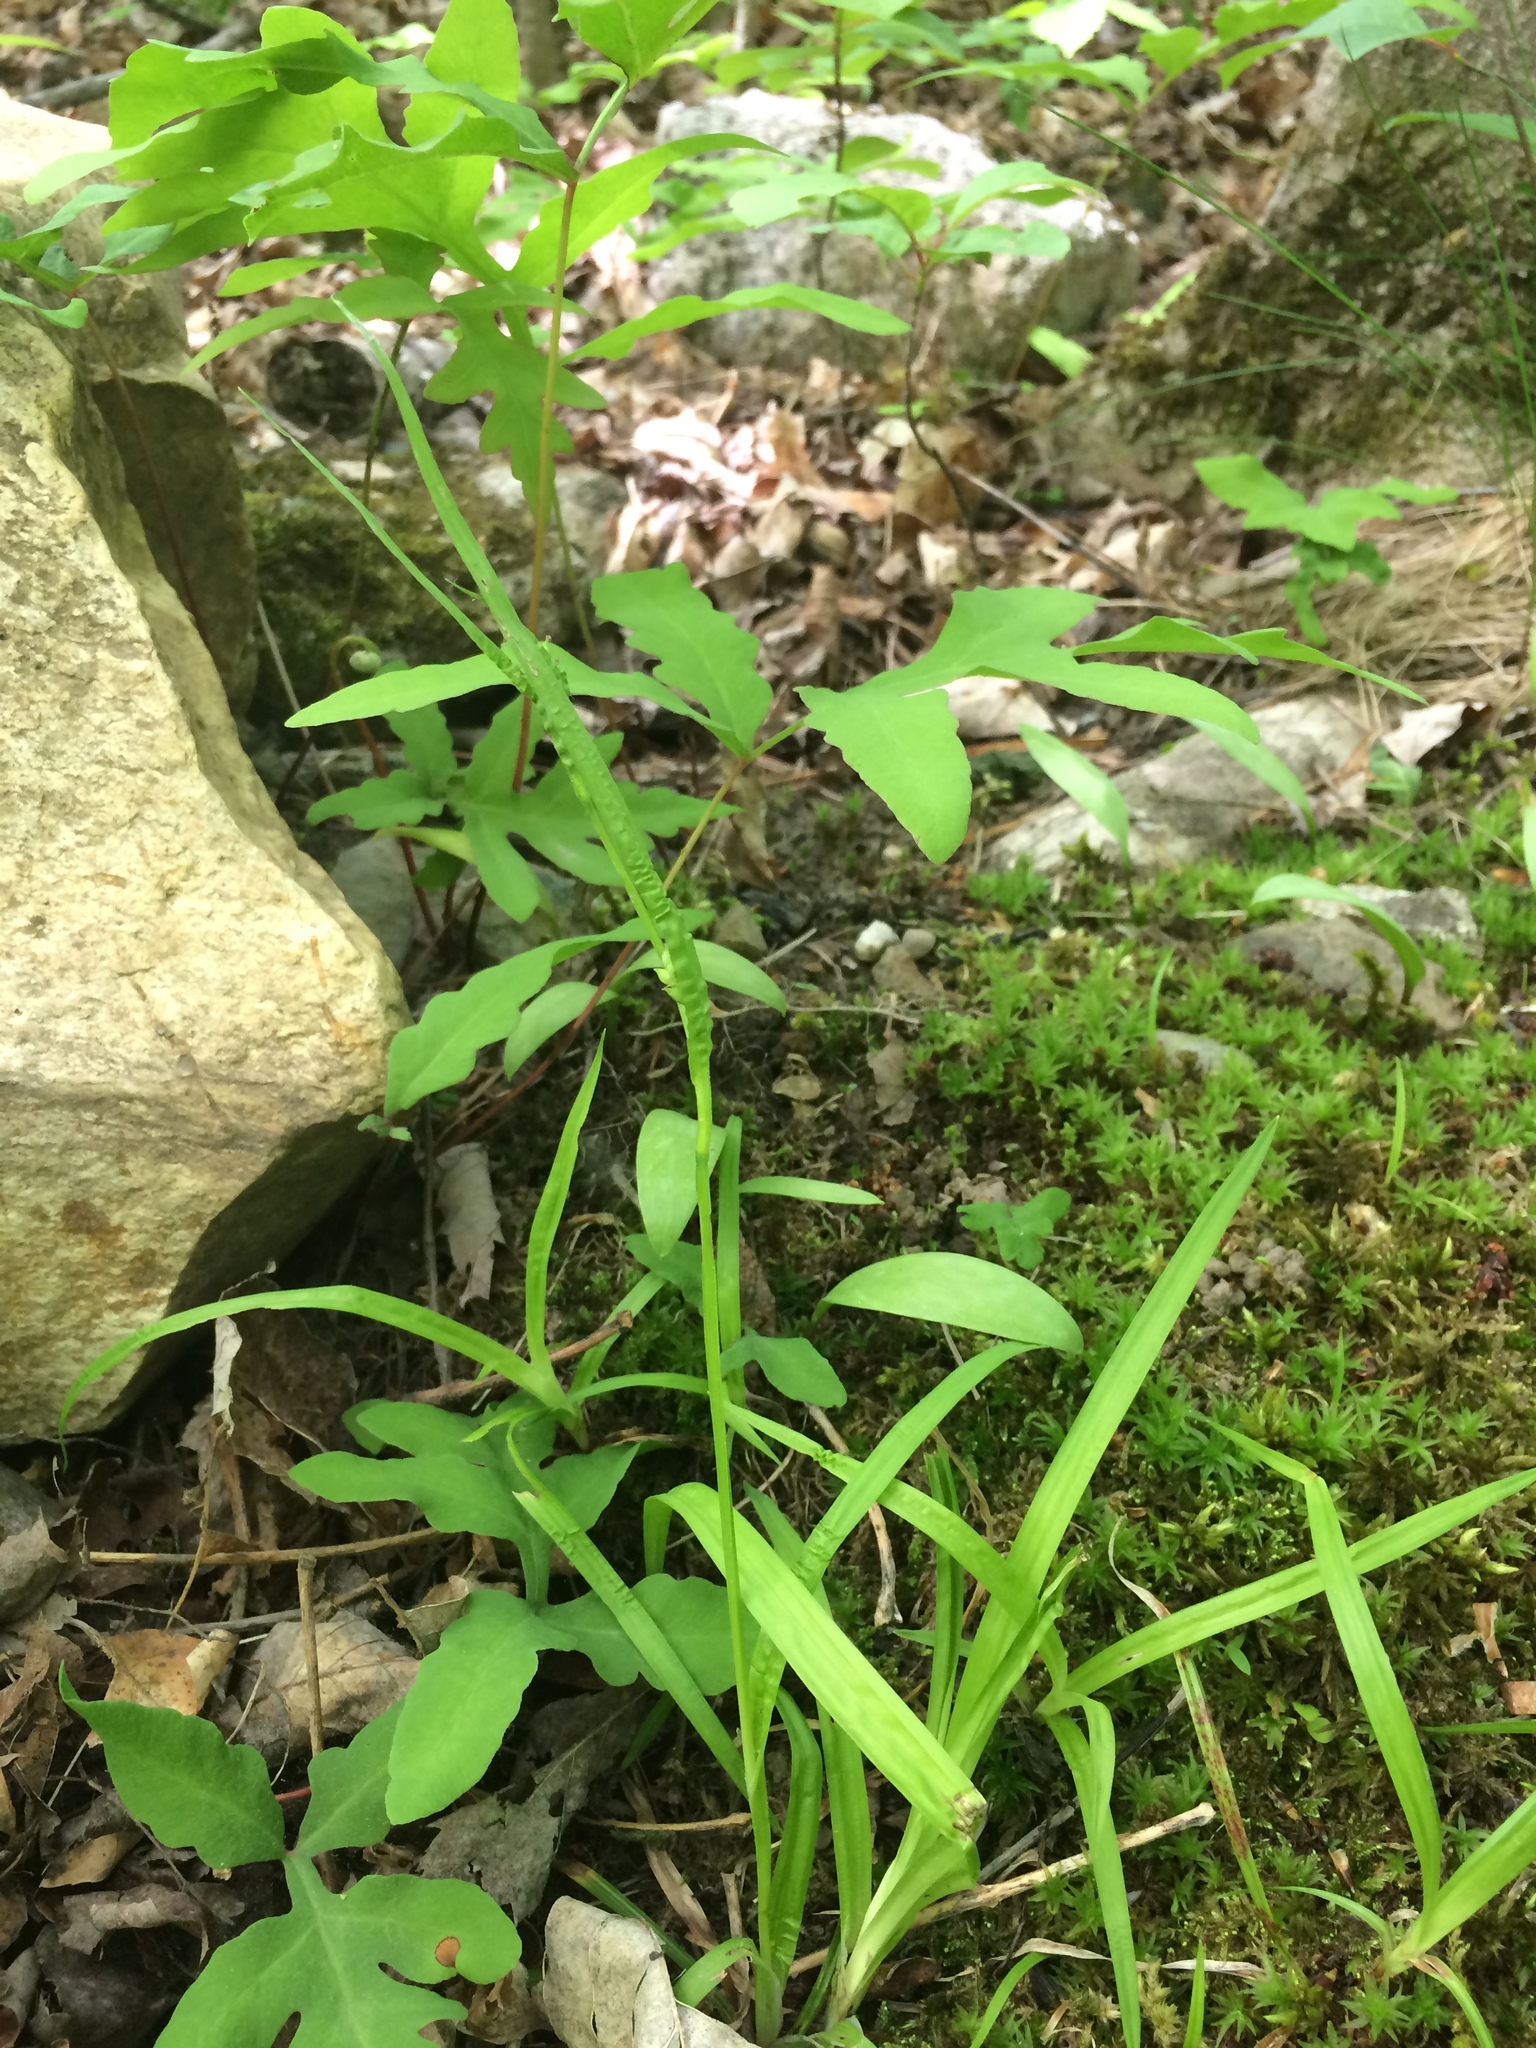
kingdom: Plantae
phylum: Tracheophyta
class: Liliopsida
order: Poales
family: Cyperaceae
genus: Carex
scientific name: Carex leptonervia
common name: Few-nerved wood sedge
